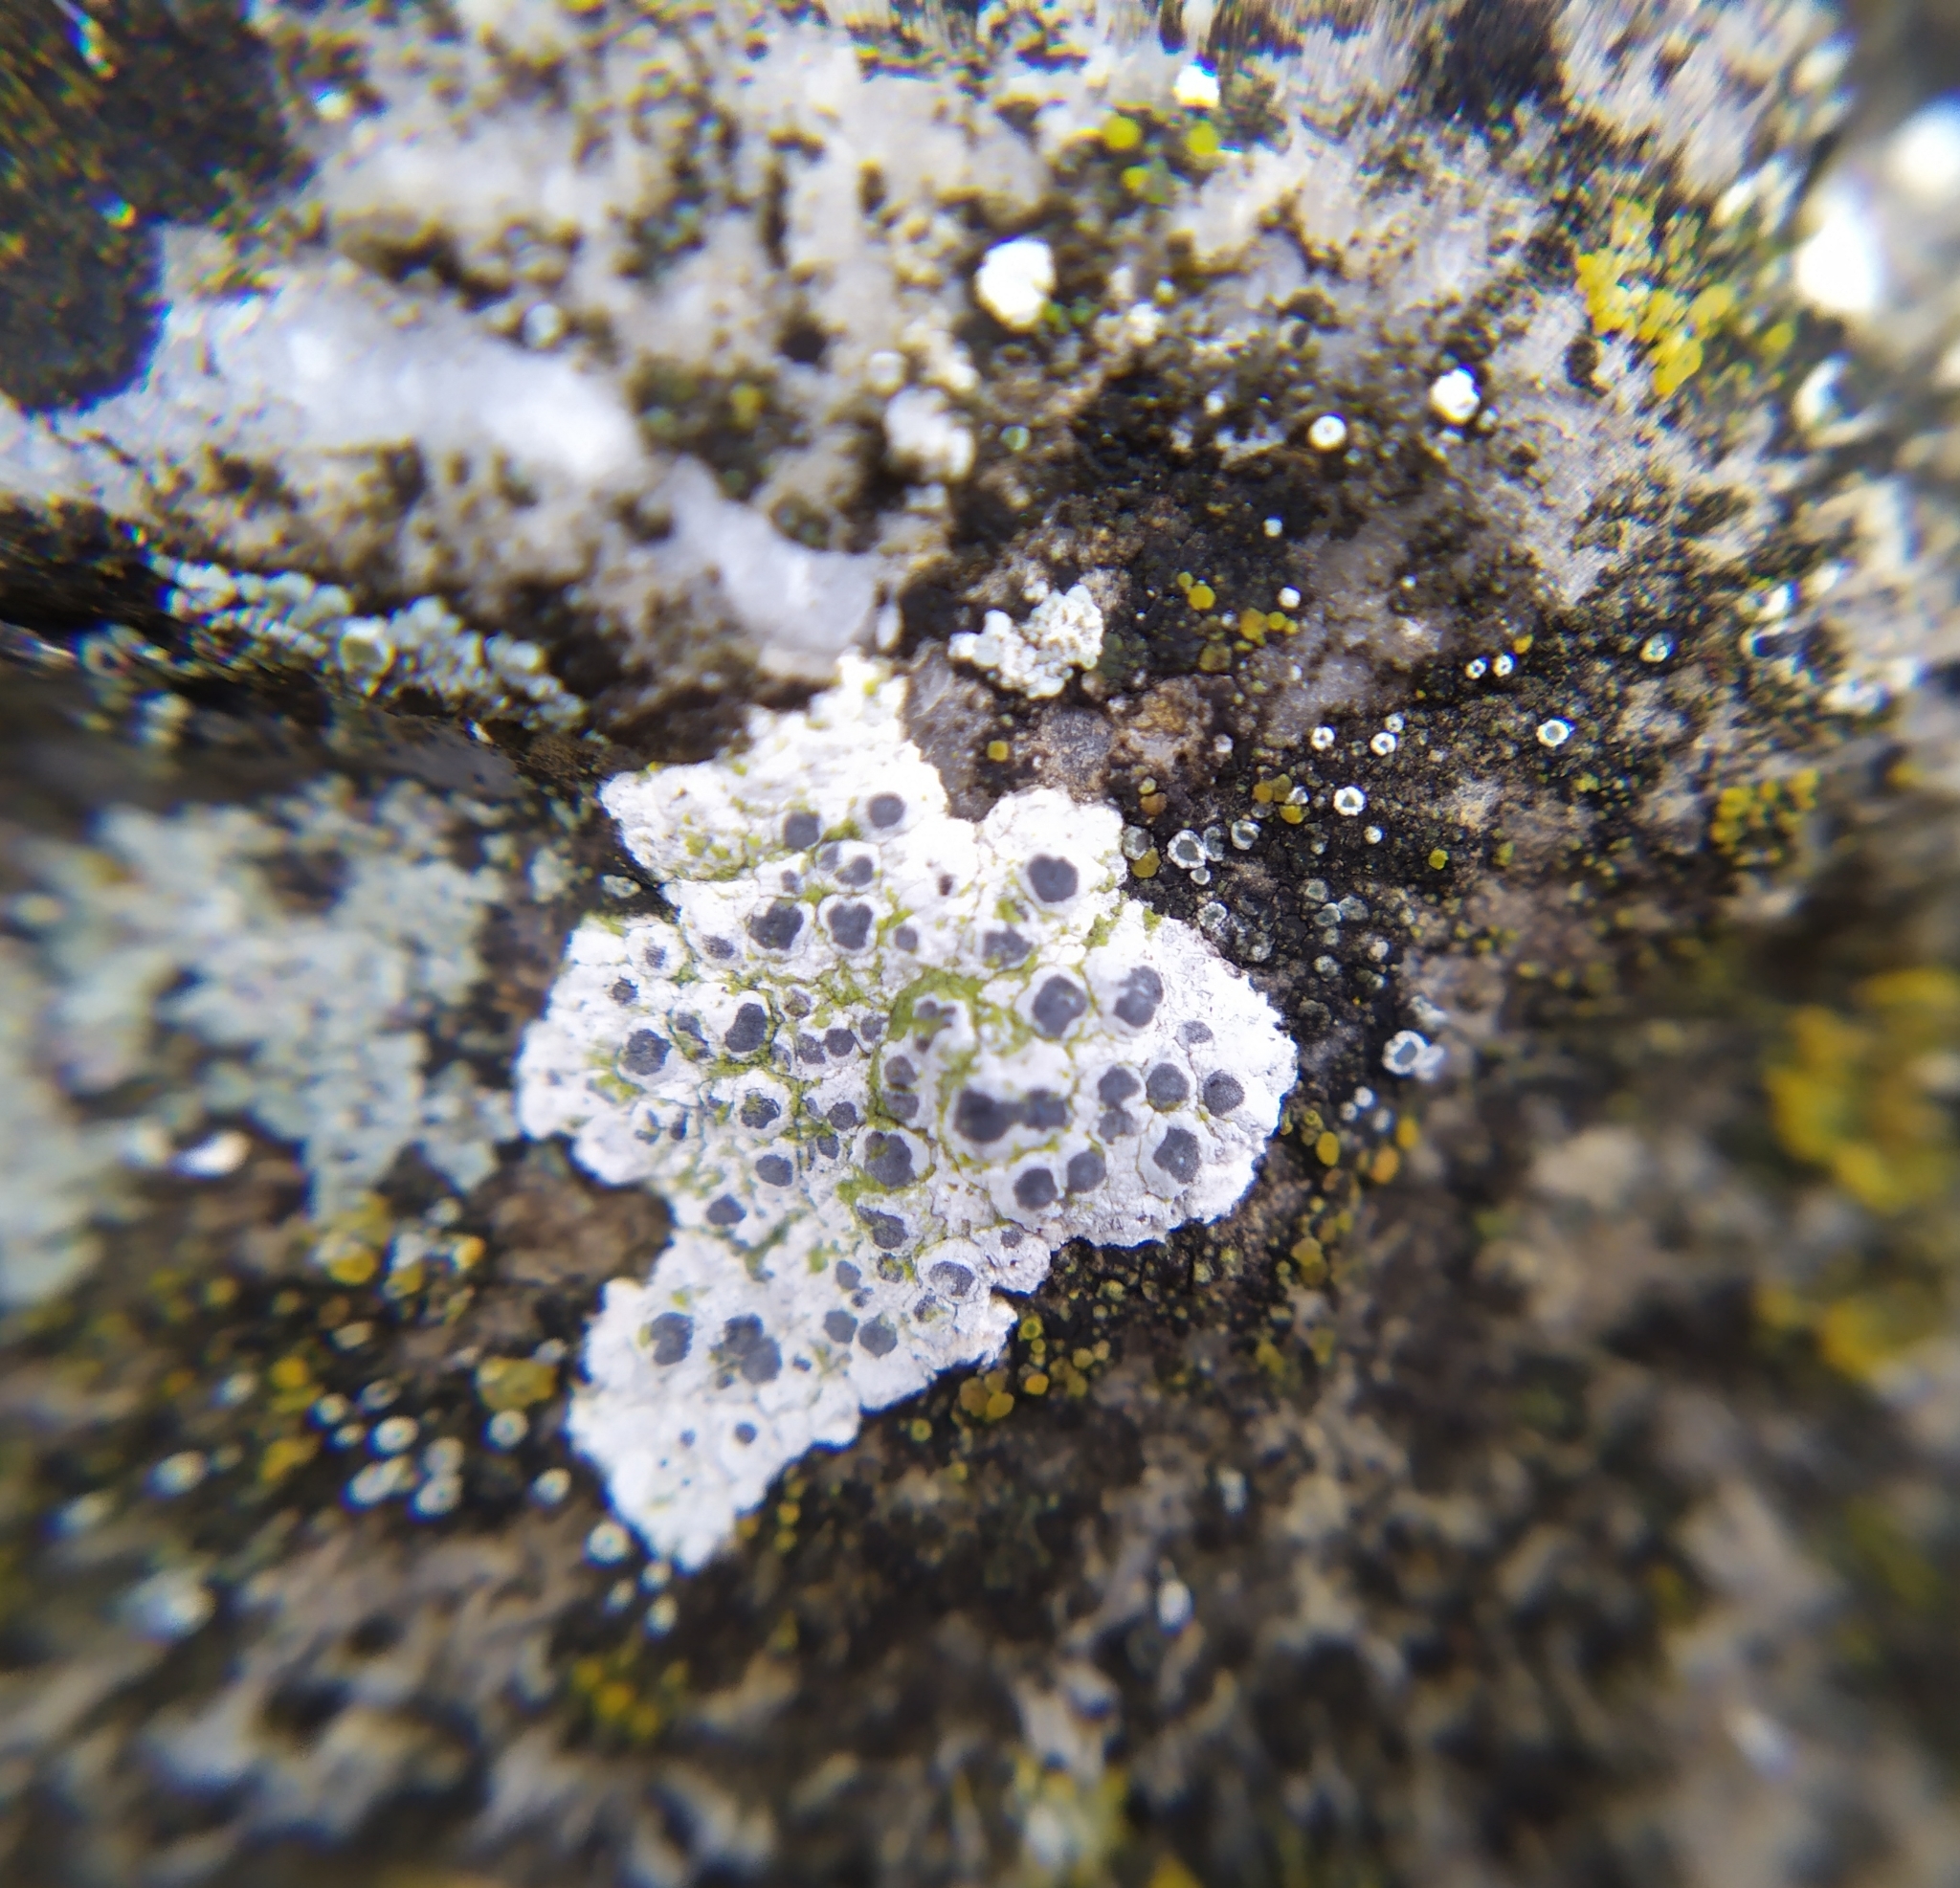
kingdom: Fungi
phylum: Ascomycota
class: Lecanoromycetes
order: Caliciales
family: Caliciaceae
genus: Diplotomma
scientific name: Diplotomma alboatrum
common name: Grayish button lichen
